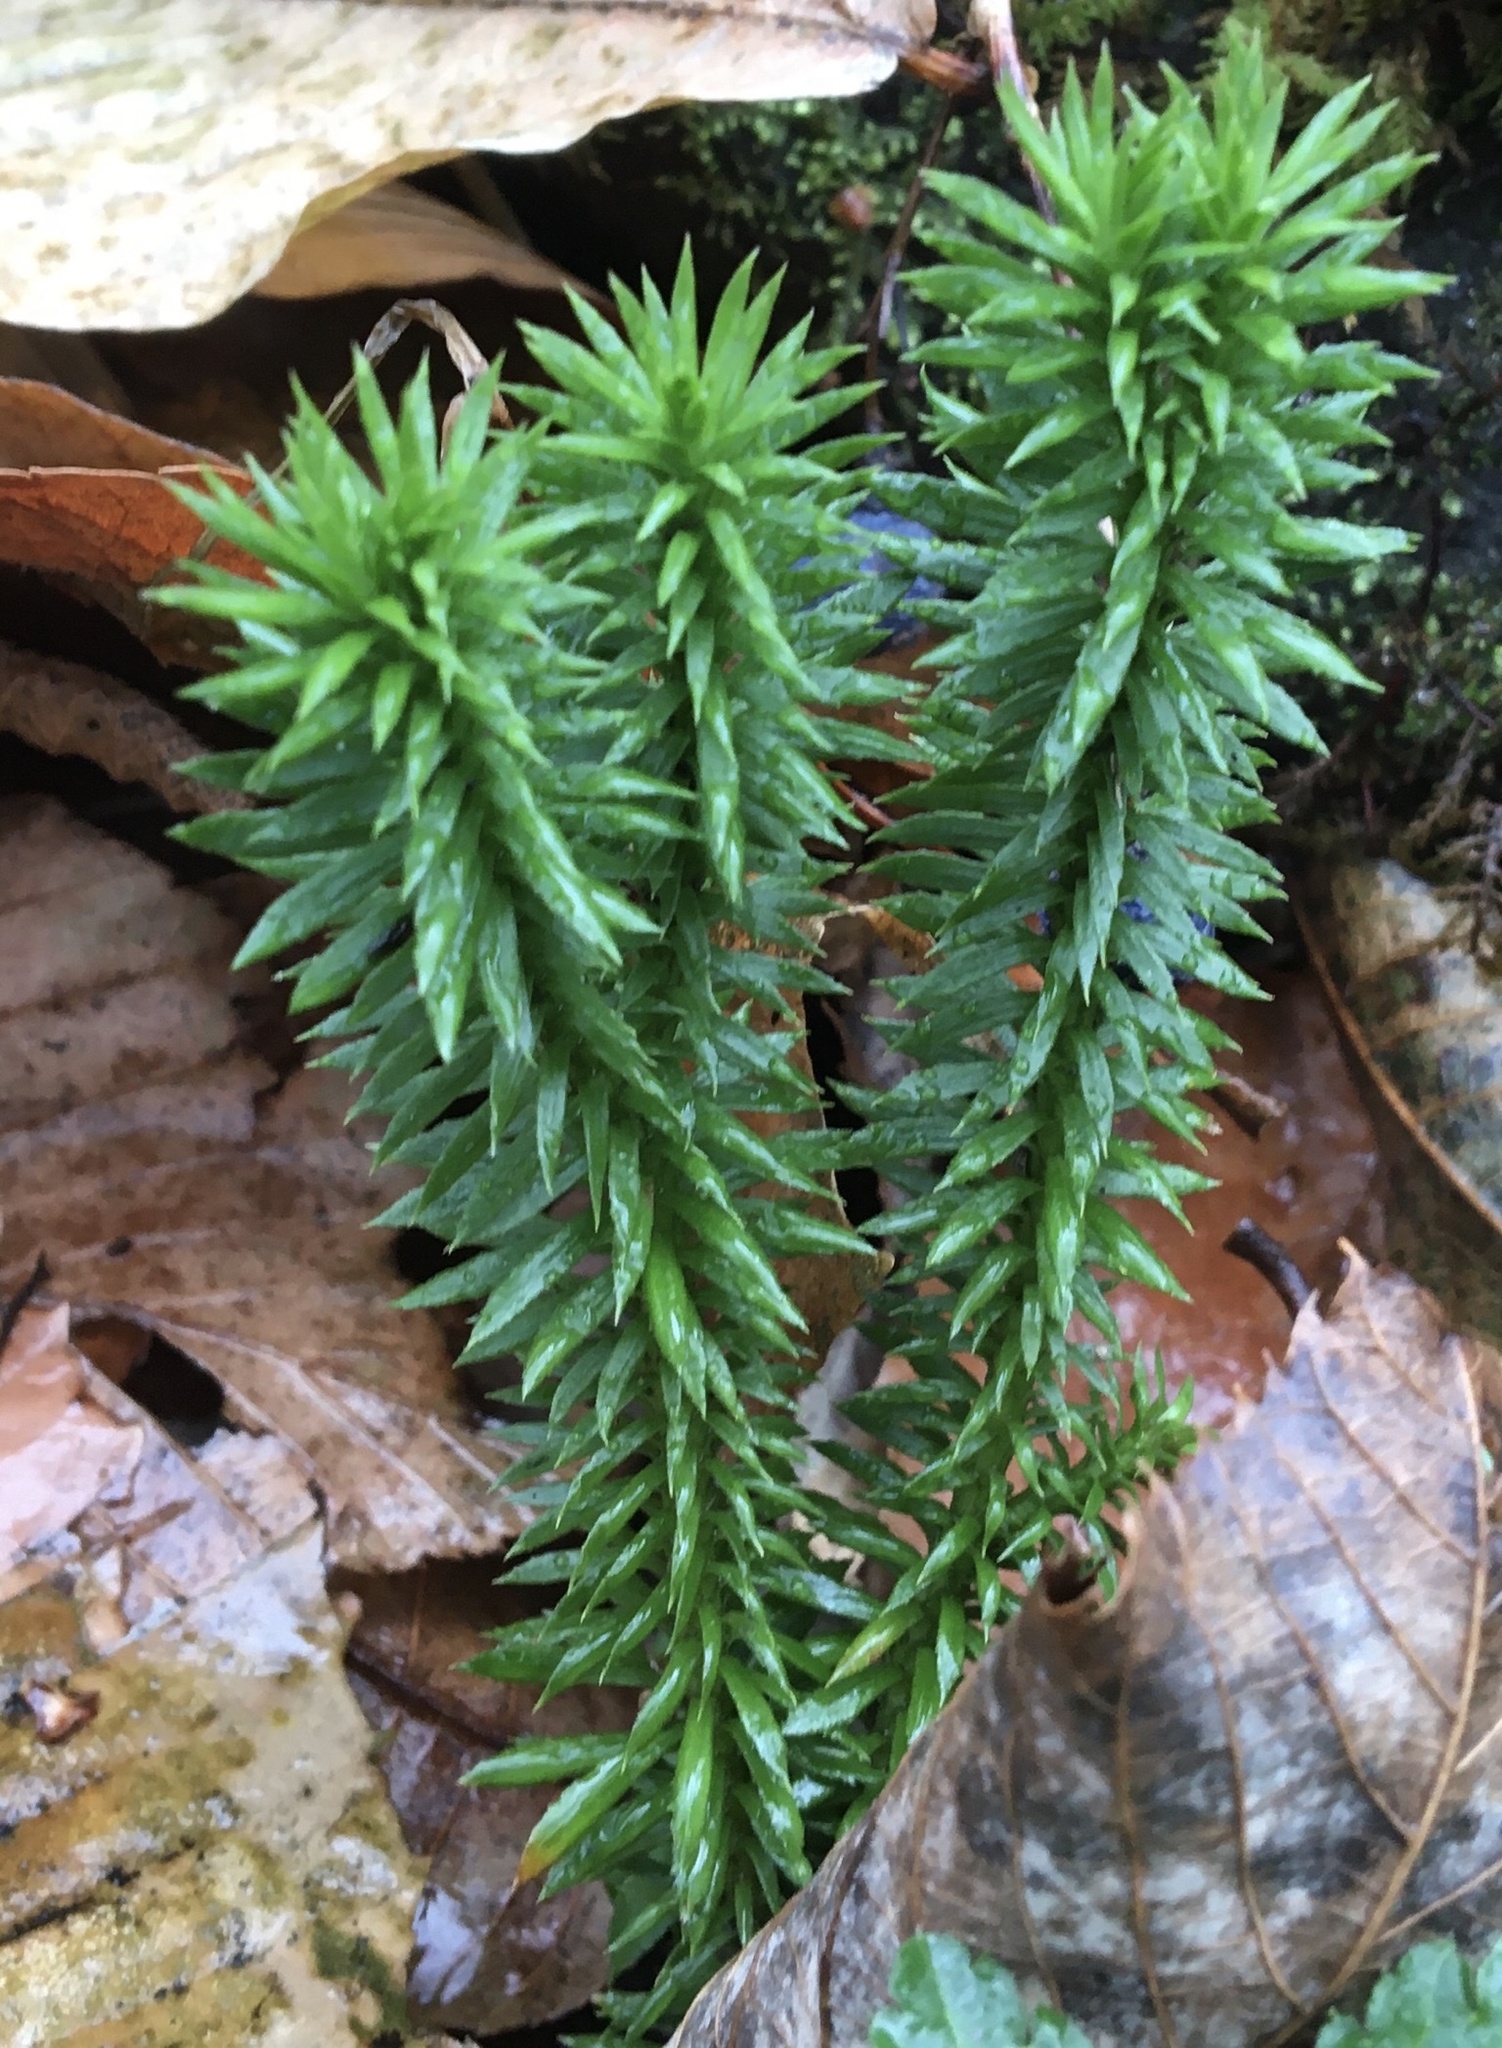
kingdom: Plantae
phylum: Tracheophyta
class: Lycopodiopsida
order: Lycopodiales
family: Lycopodiaceae
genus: Huperzia
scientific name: Huperzia lucidula
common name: Shining clubmoss
